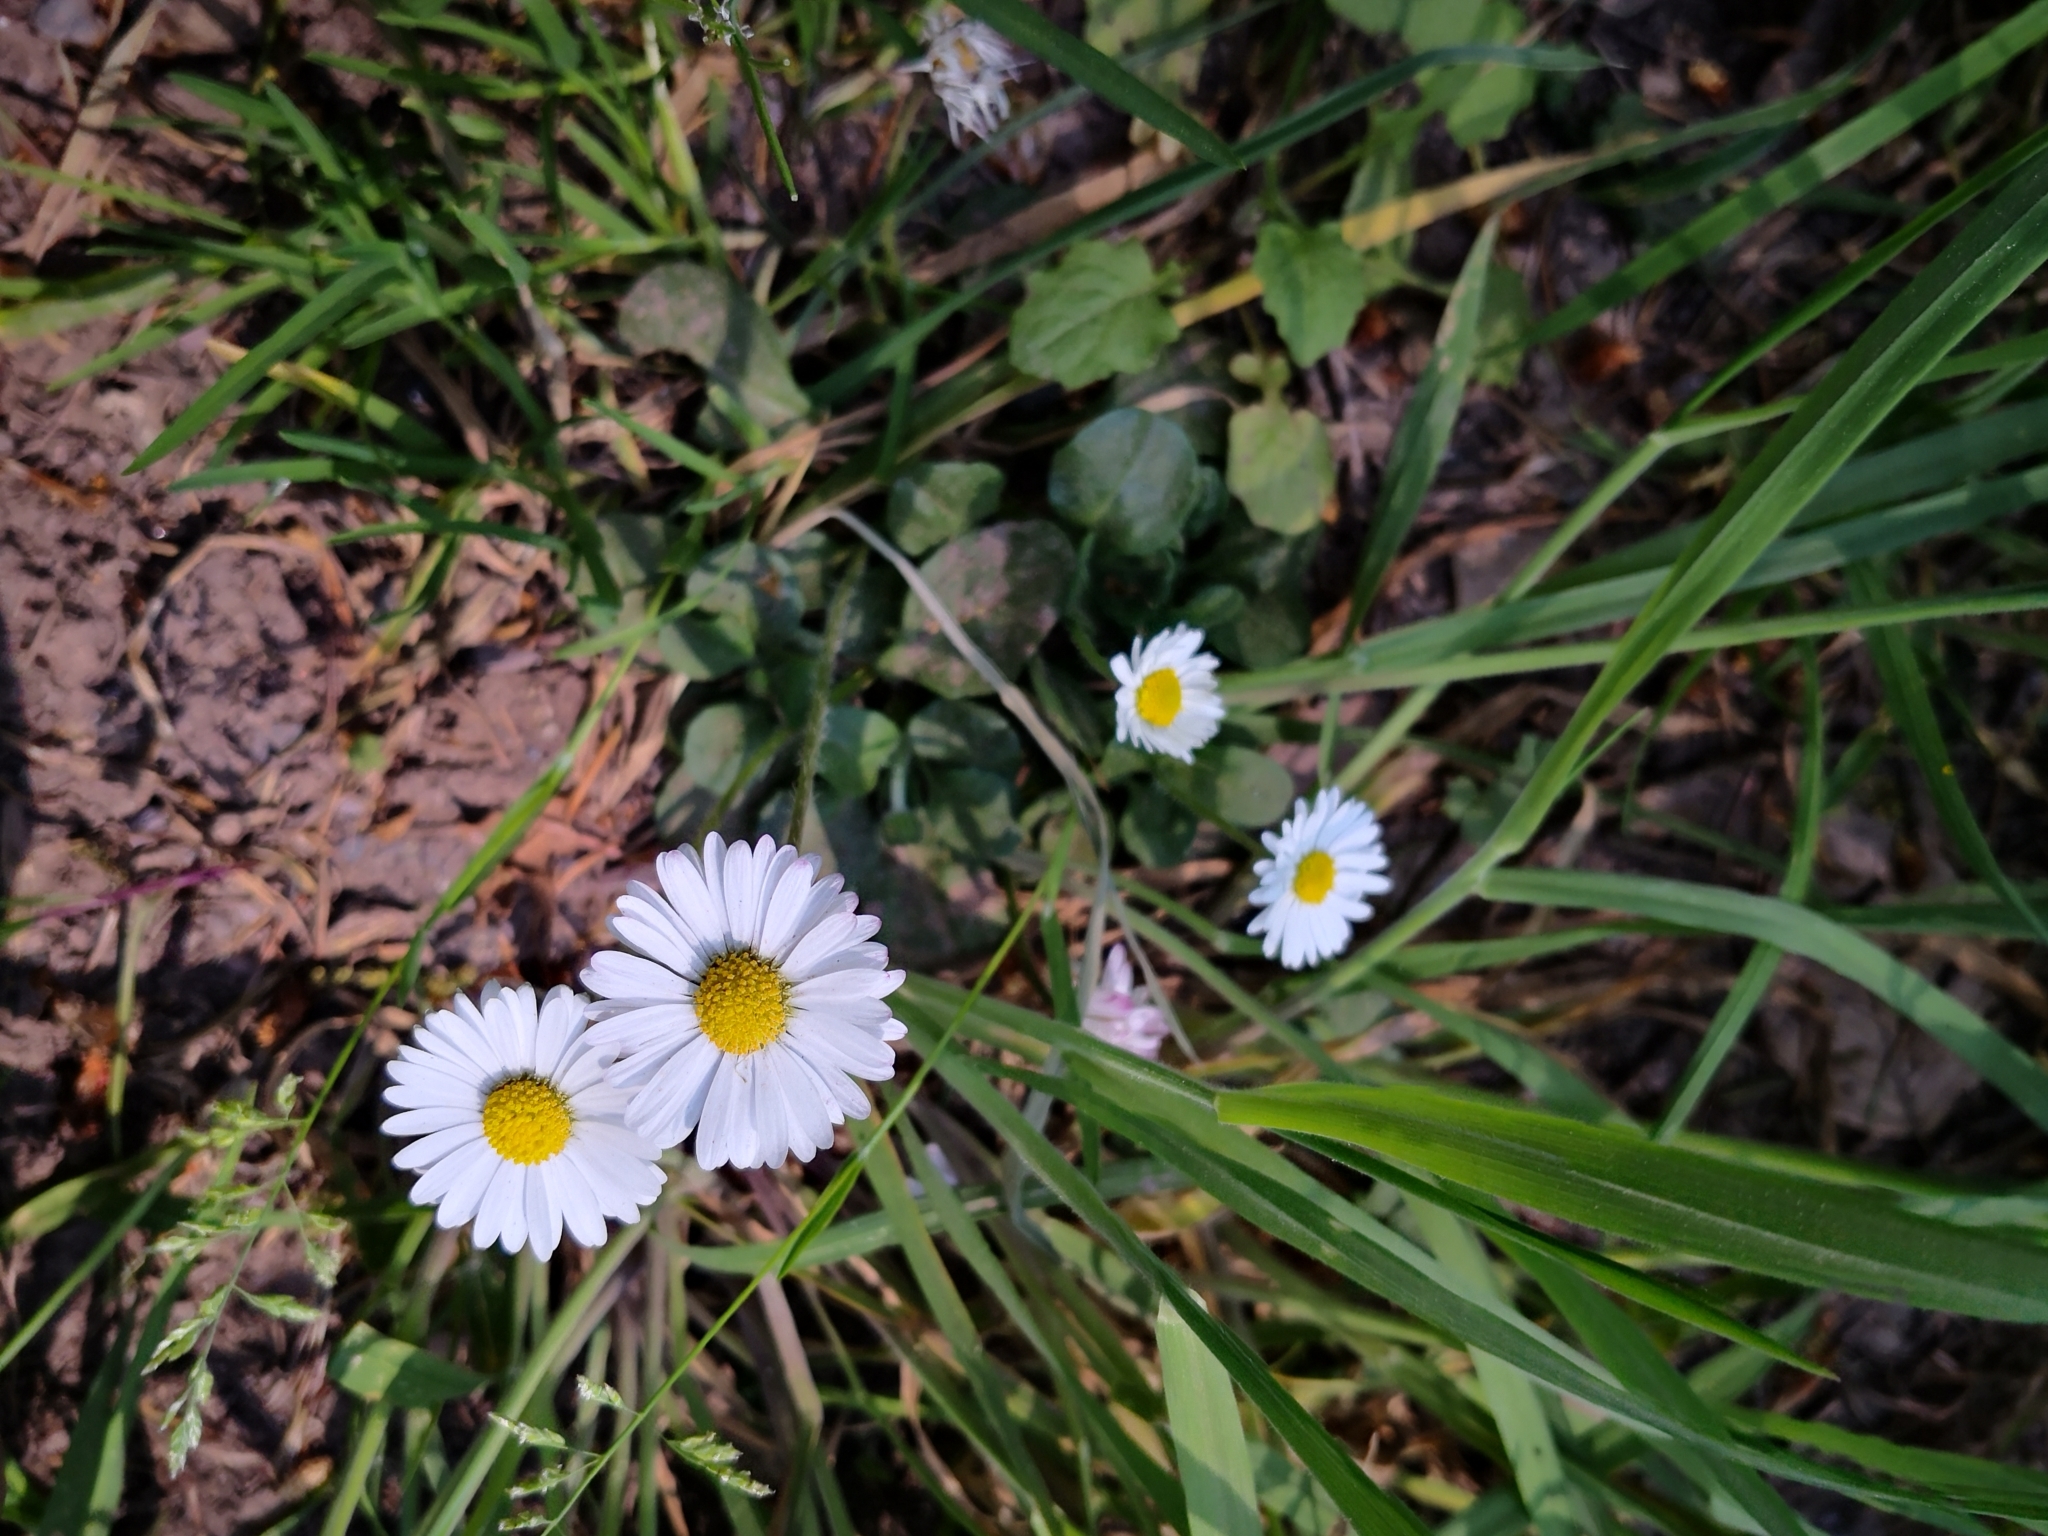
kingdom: Plantae
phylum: Tracheophyta
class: Magnoliopsida
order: Asterales
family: Asteraceae
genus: Bellis
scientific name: Bellis perennis
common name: Lawndaisy
